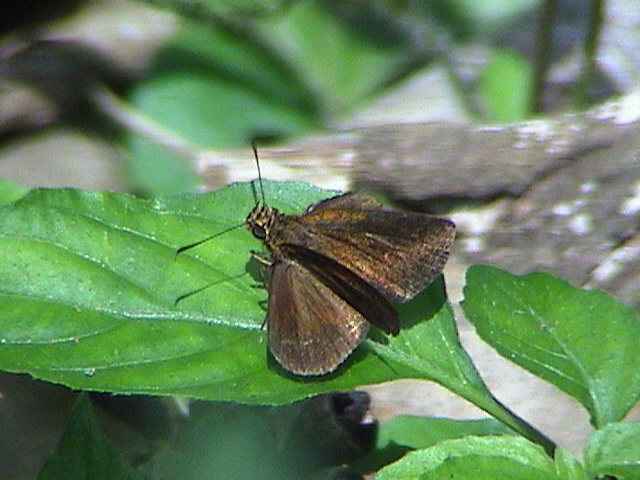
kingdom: Animalia
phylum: Arthropoda
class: Insecta
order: Lepidoptera
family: Hesperiidae
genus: Iambrix
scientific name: Iambrix salsala
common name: Chestnut bob
